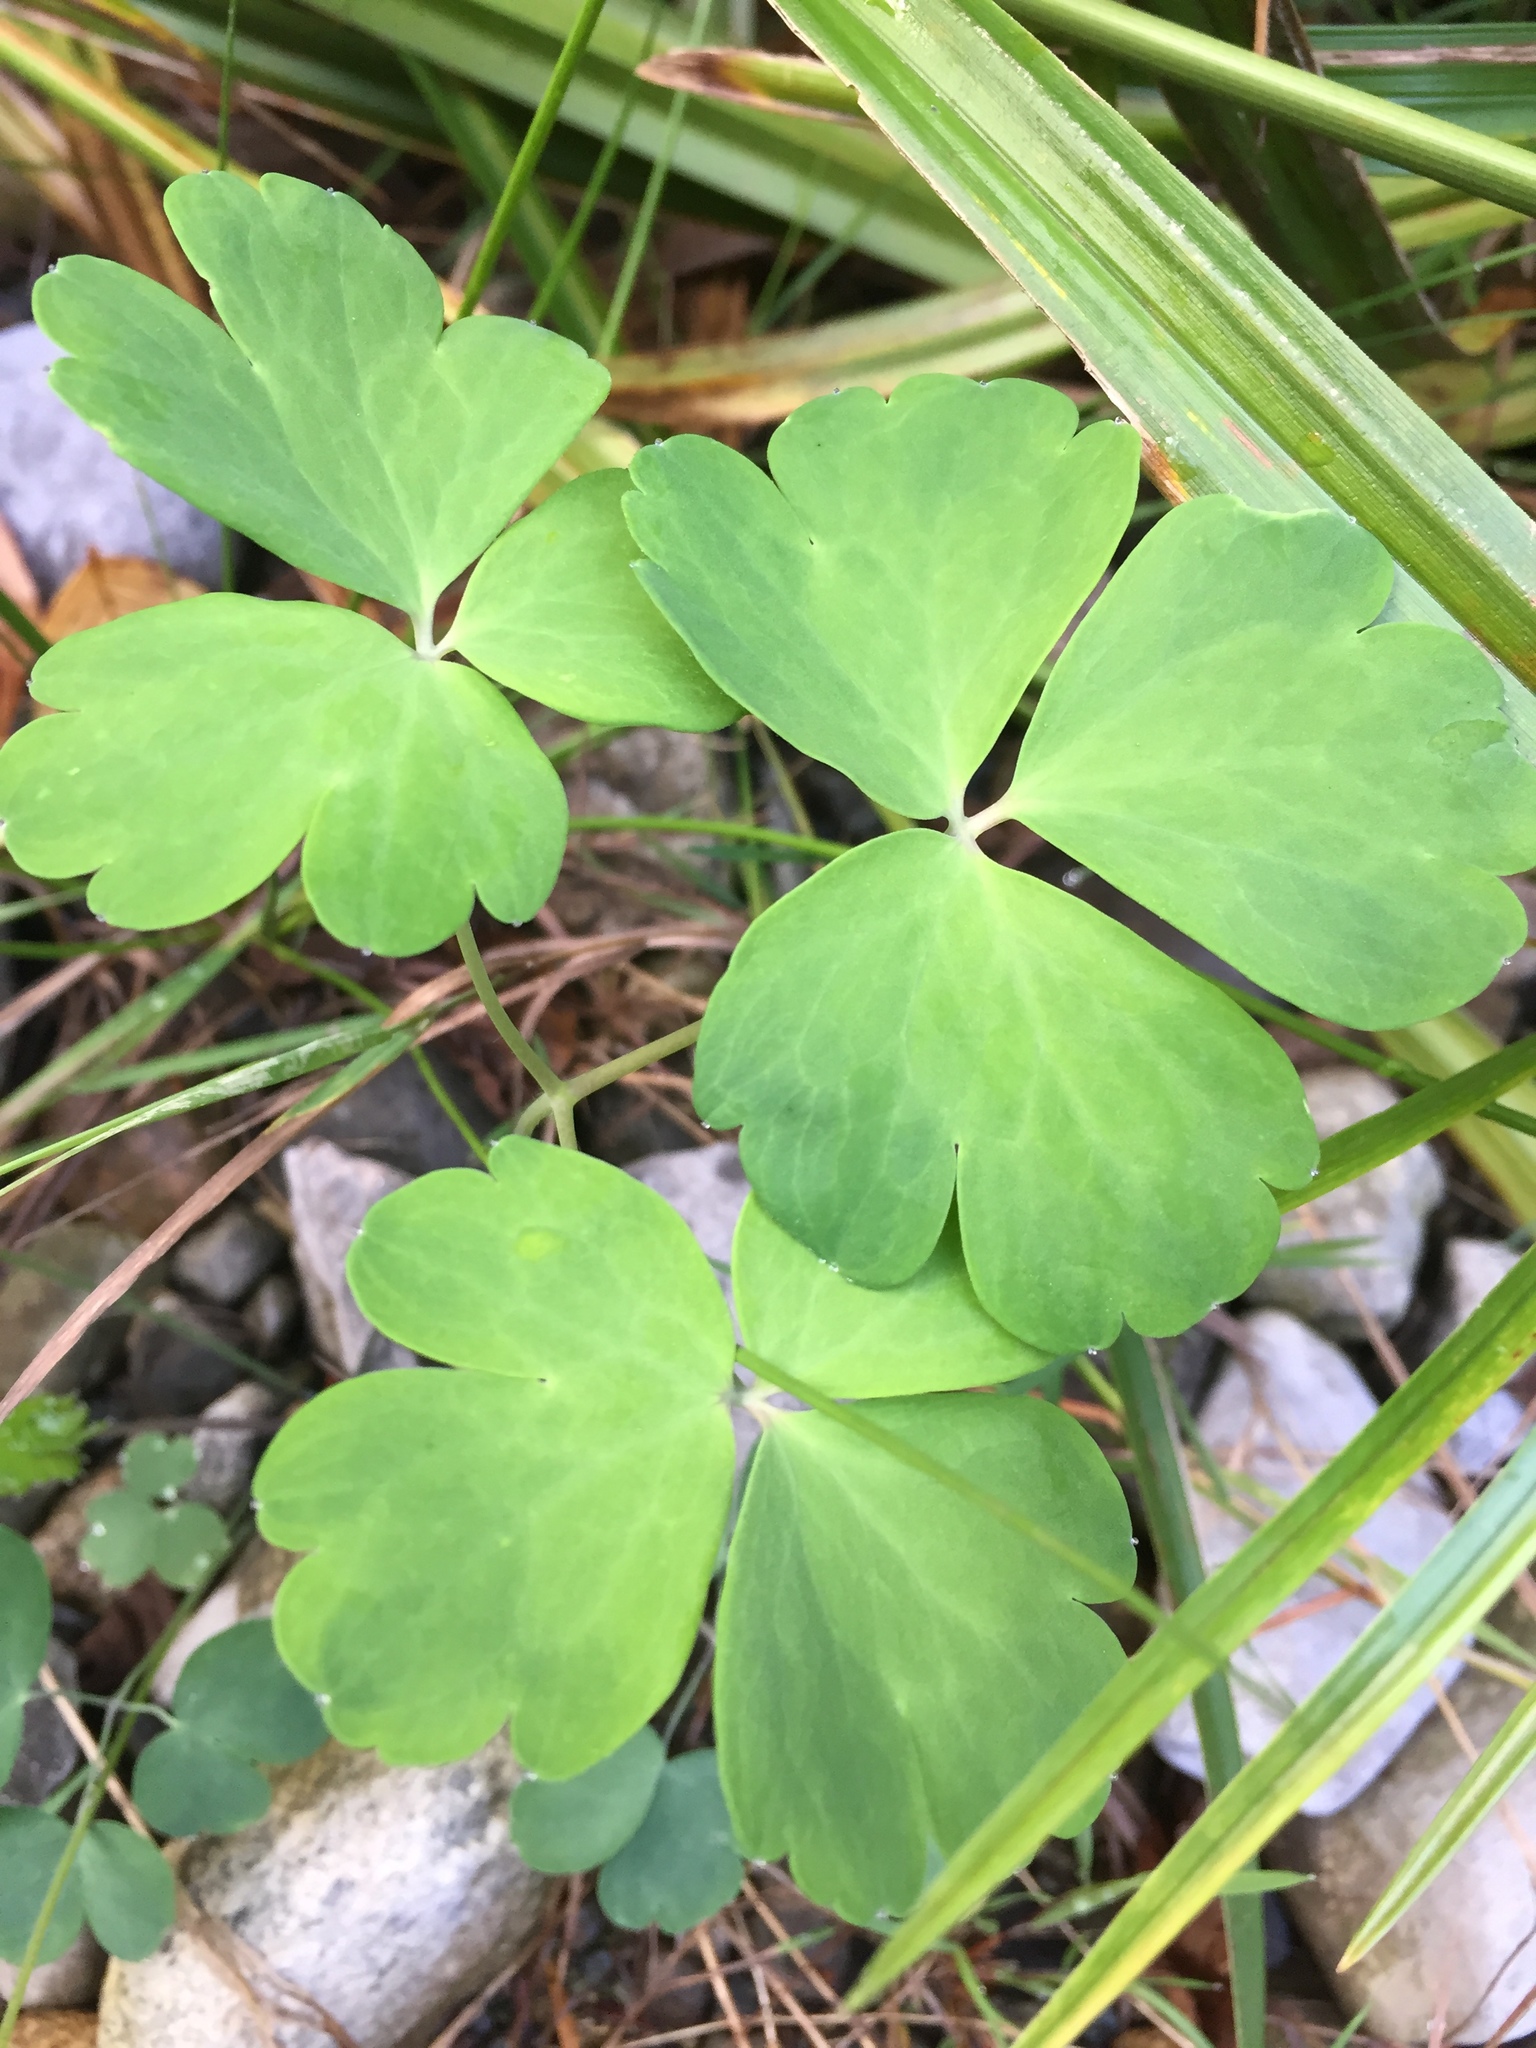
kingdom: Plantae
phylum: Tracheophyta
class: Magnoliopsida
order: Ranunculales
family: Ranunculaceae
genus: Aquilegia
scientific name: Aquilegia formosa
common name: Sitka columbine
